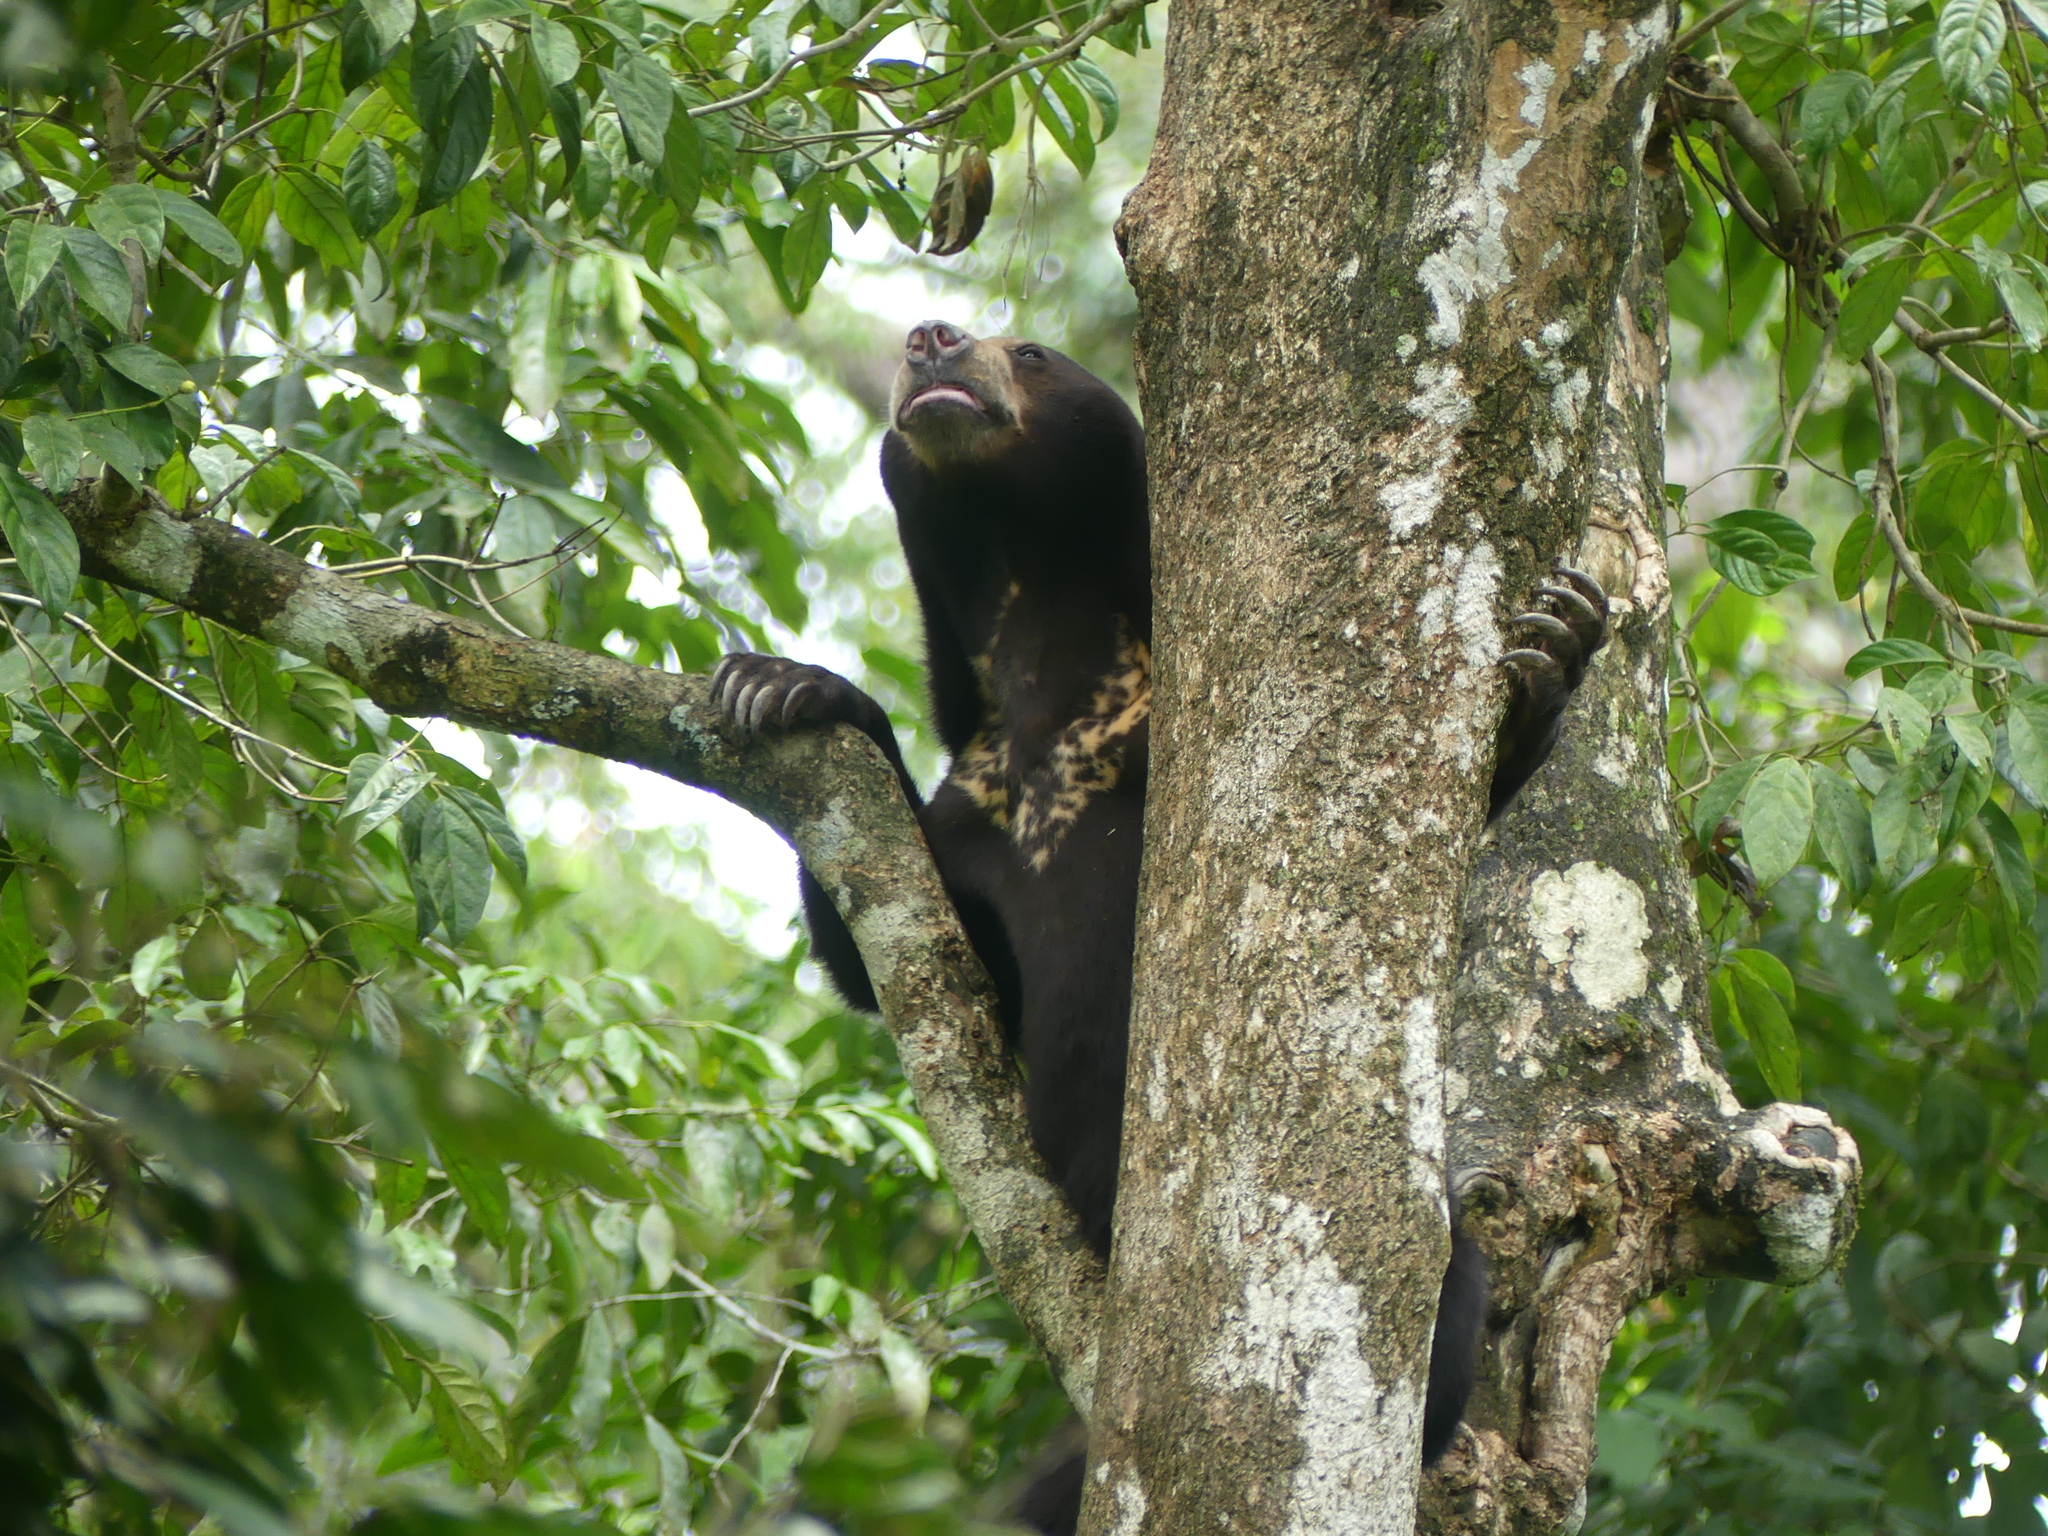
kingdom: Animalia
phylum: Chordata
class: Mammalia
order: Carnivora
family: Ursidae
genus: Helarctos
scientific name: Helarctos malayanus
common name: Sun bear
